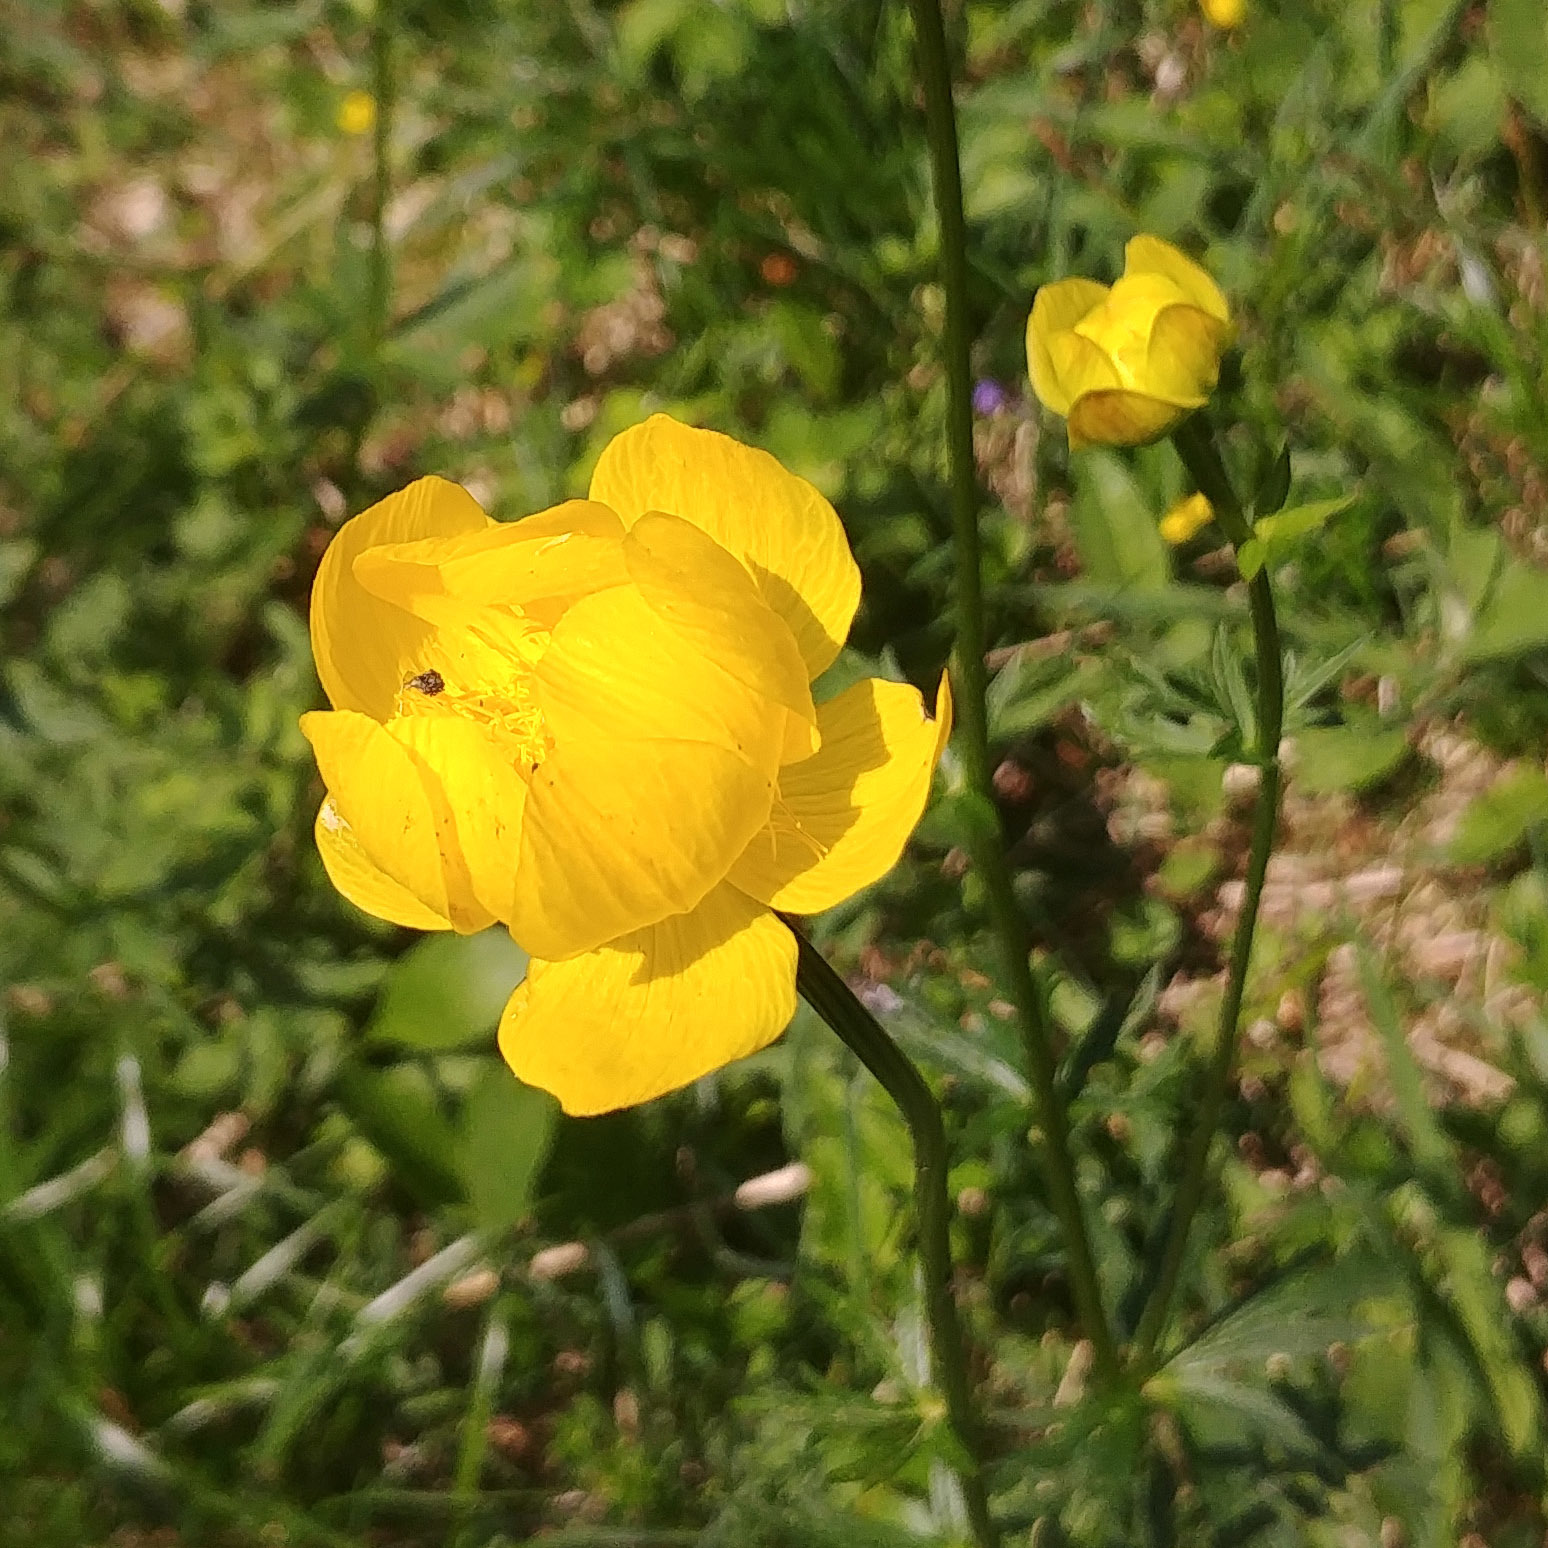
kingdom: Plantae
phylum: Tracheophyta
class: Magnoliopsida
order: Ranunculales
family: Ranunculaceae
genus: Trollius
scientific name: Trollius europaeus
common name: European globeflower
